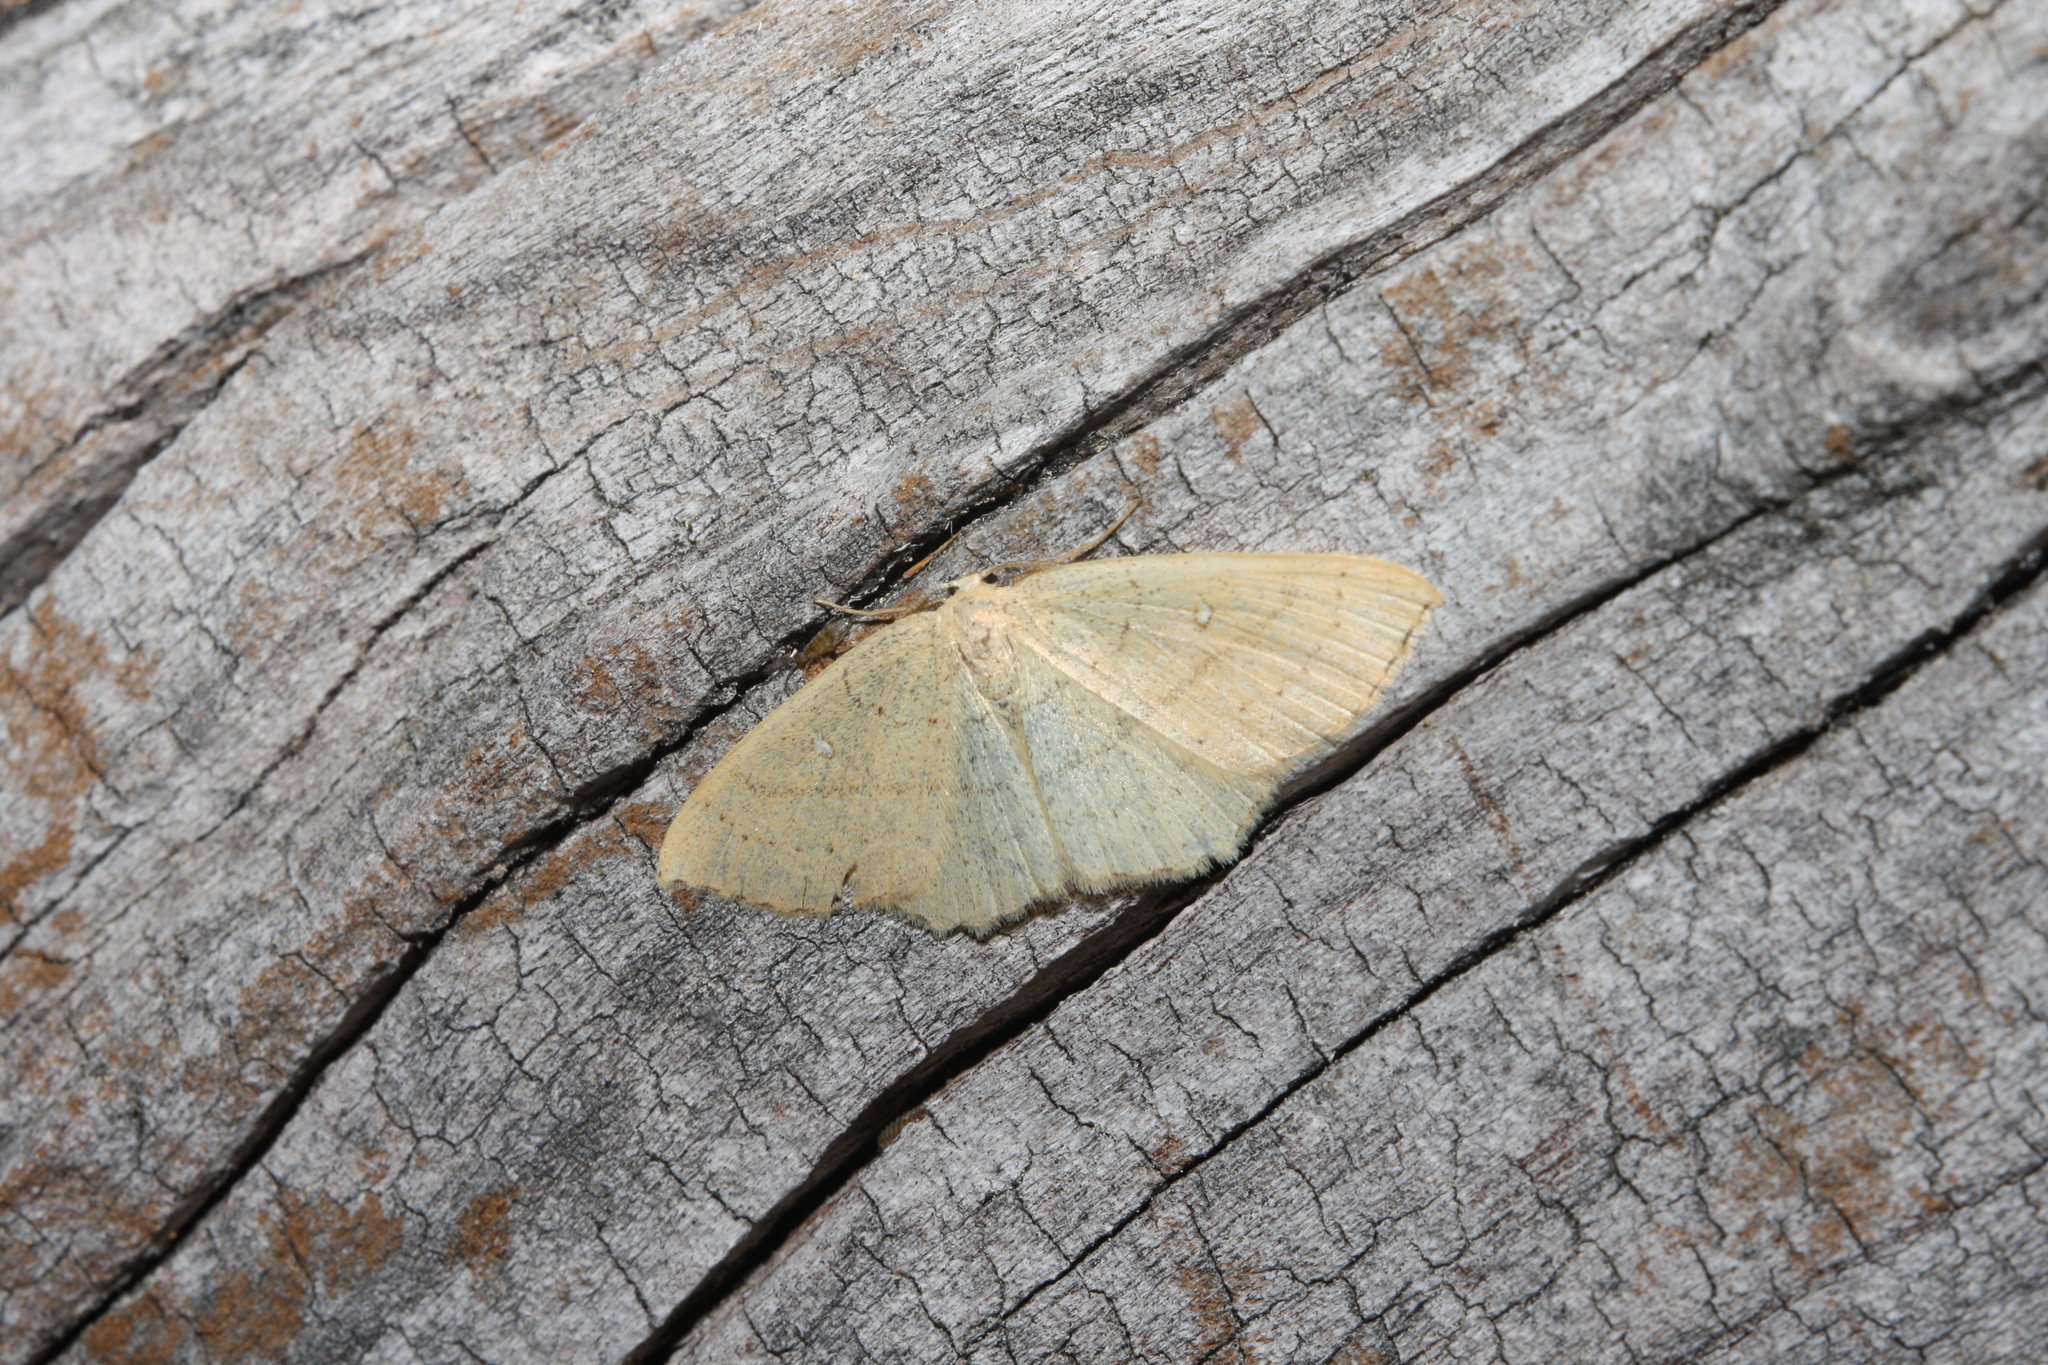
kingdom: Animalia
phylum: Arthropoda
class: Insecta
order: Lepidoptera
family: Geometridae
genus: Cyclophora
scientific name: Cyclophora linearia
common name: Clay triple-lines
